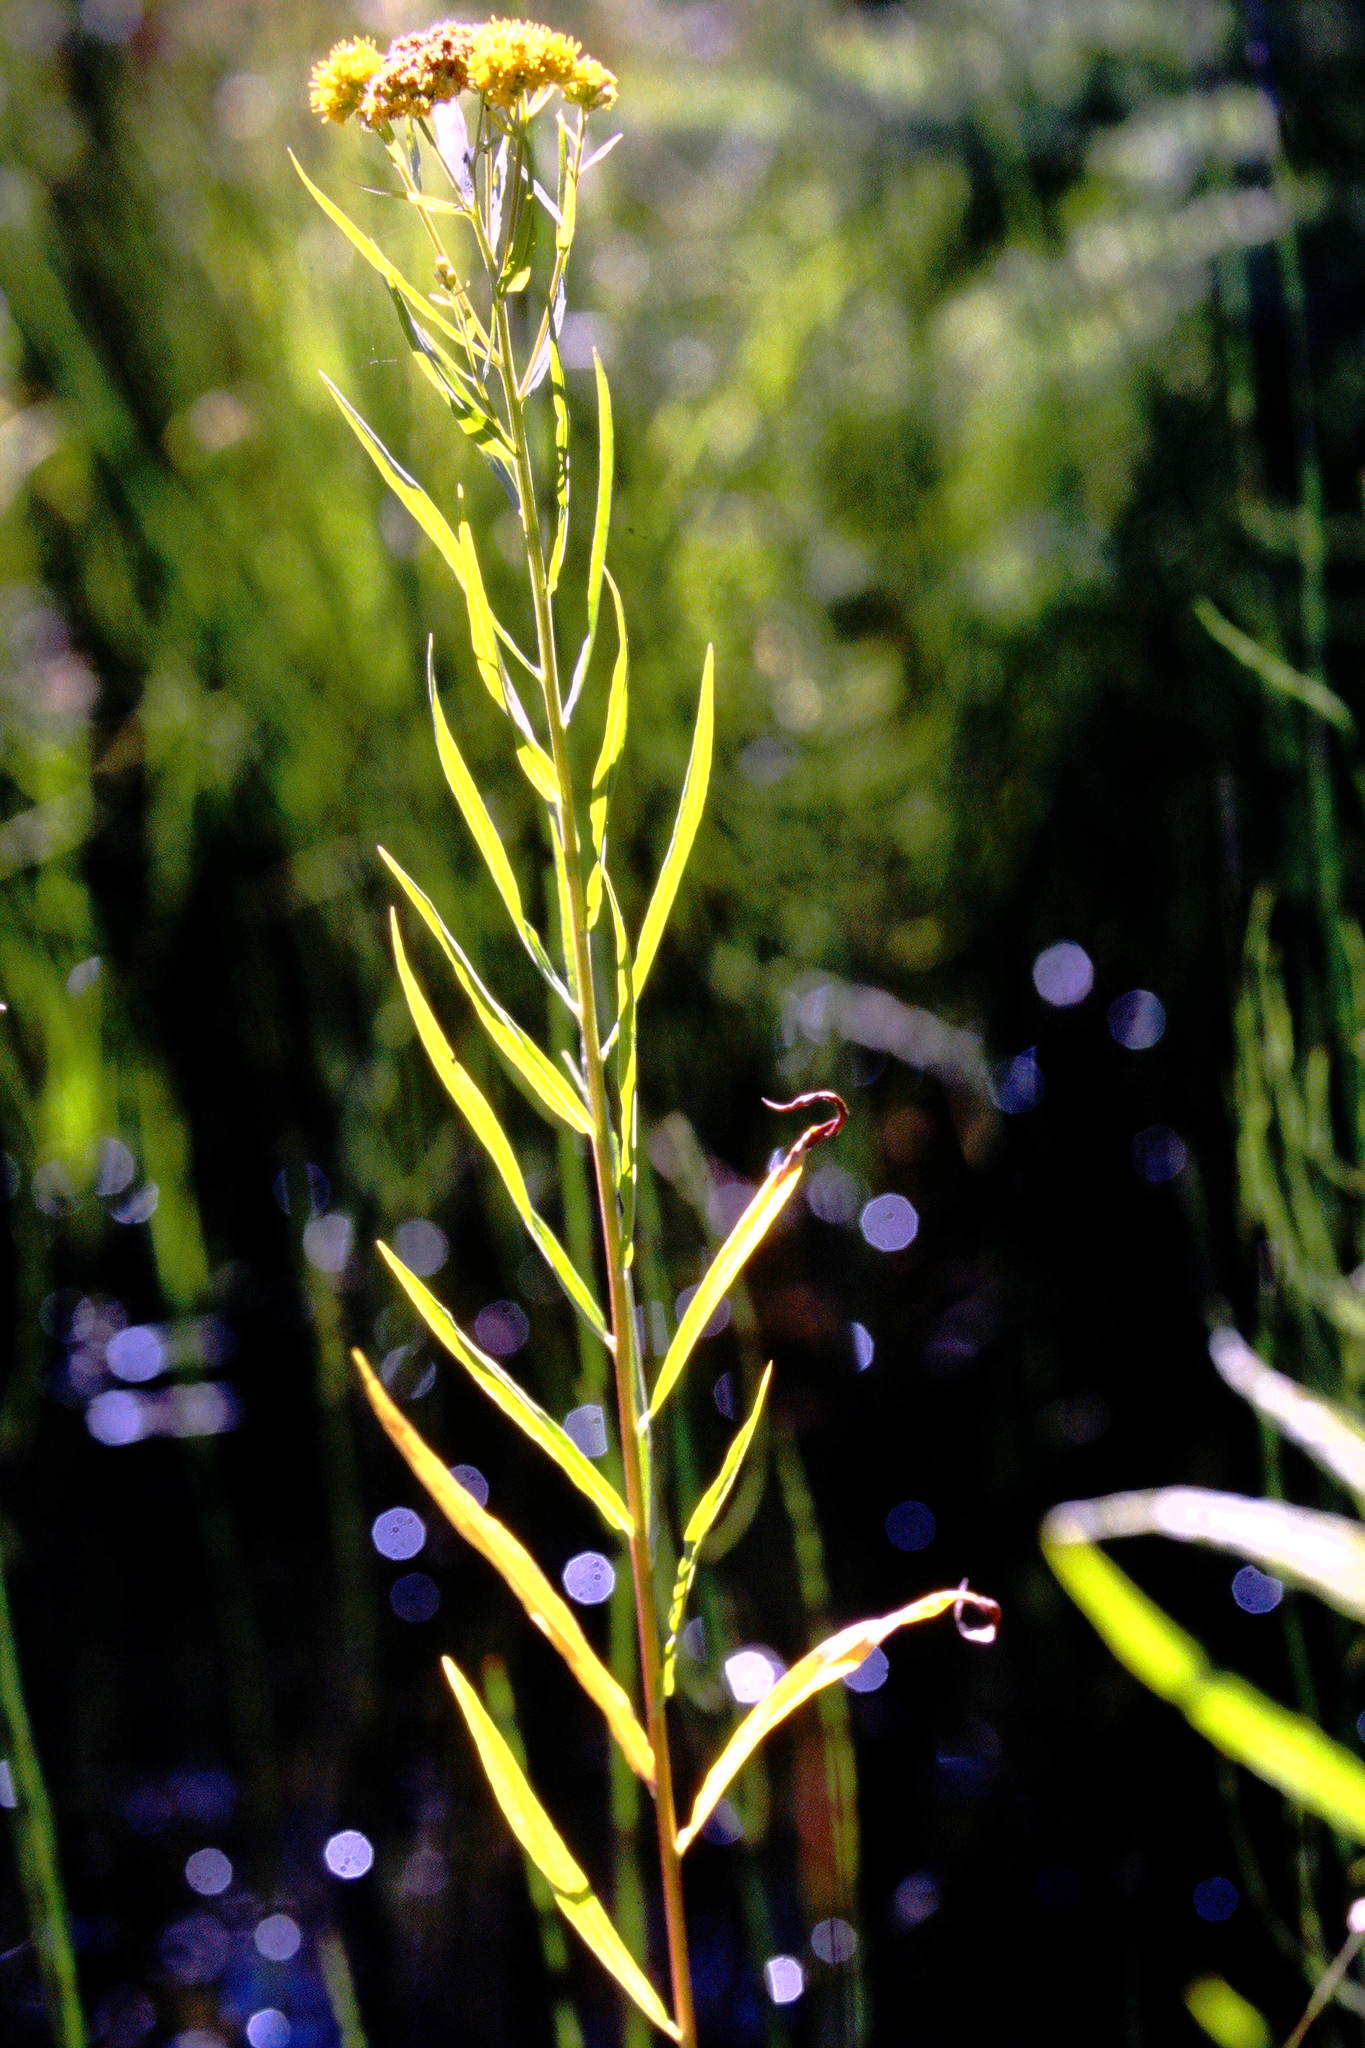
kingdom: Plantae
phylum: Tracheophyta
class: Magnoliopsida
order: Asterales
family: Asteraceae
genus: Euthamia
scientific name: Euthamia graminifolia
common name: Common goldentop
